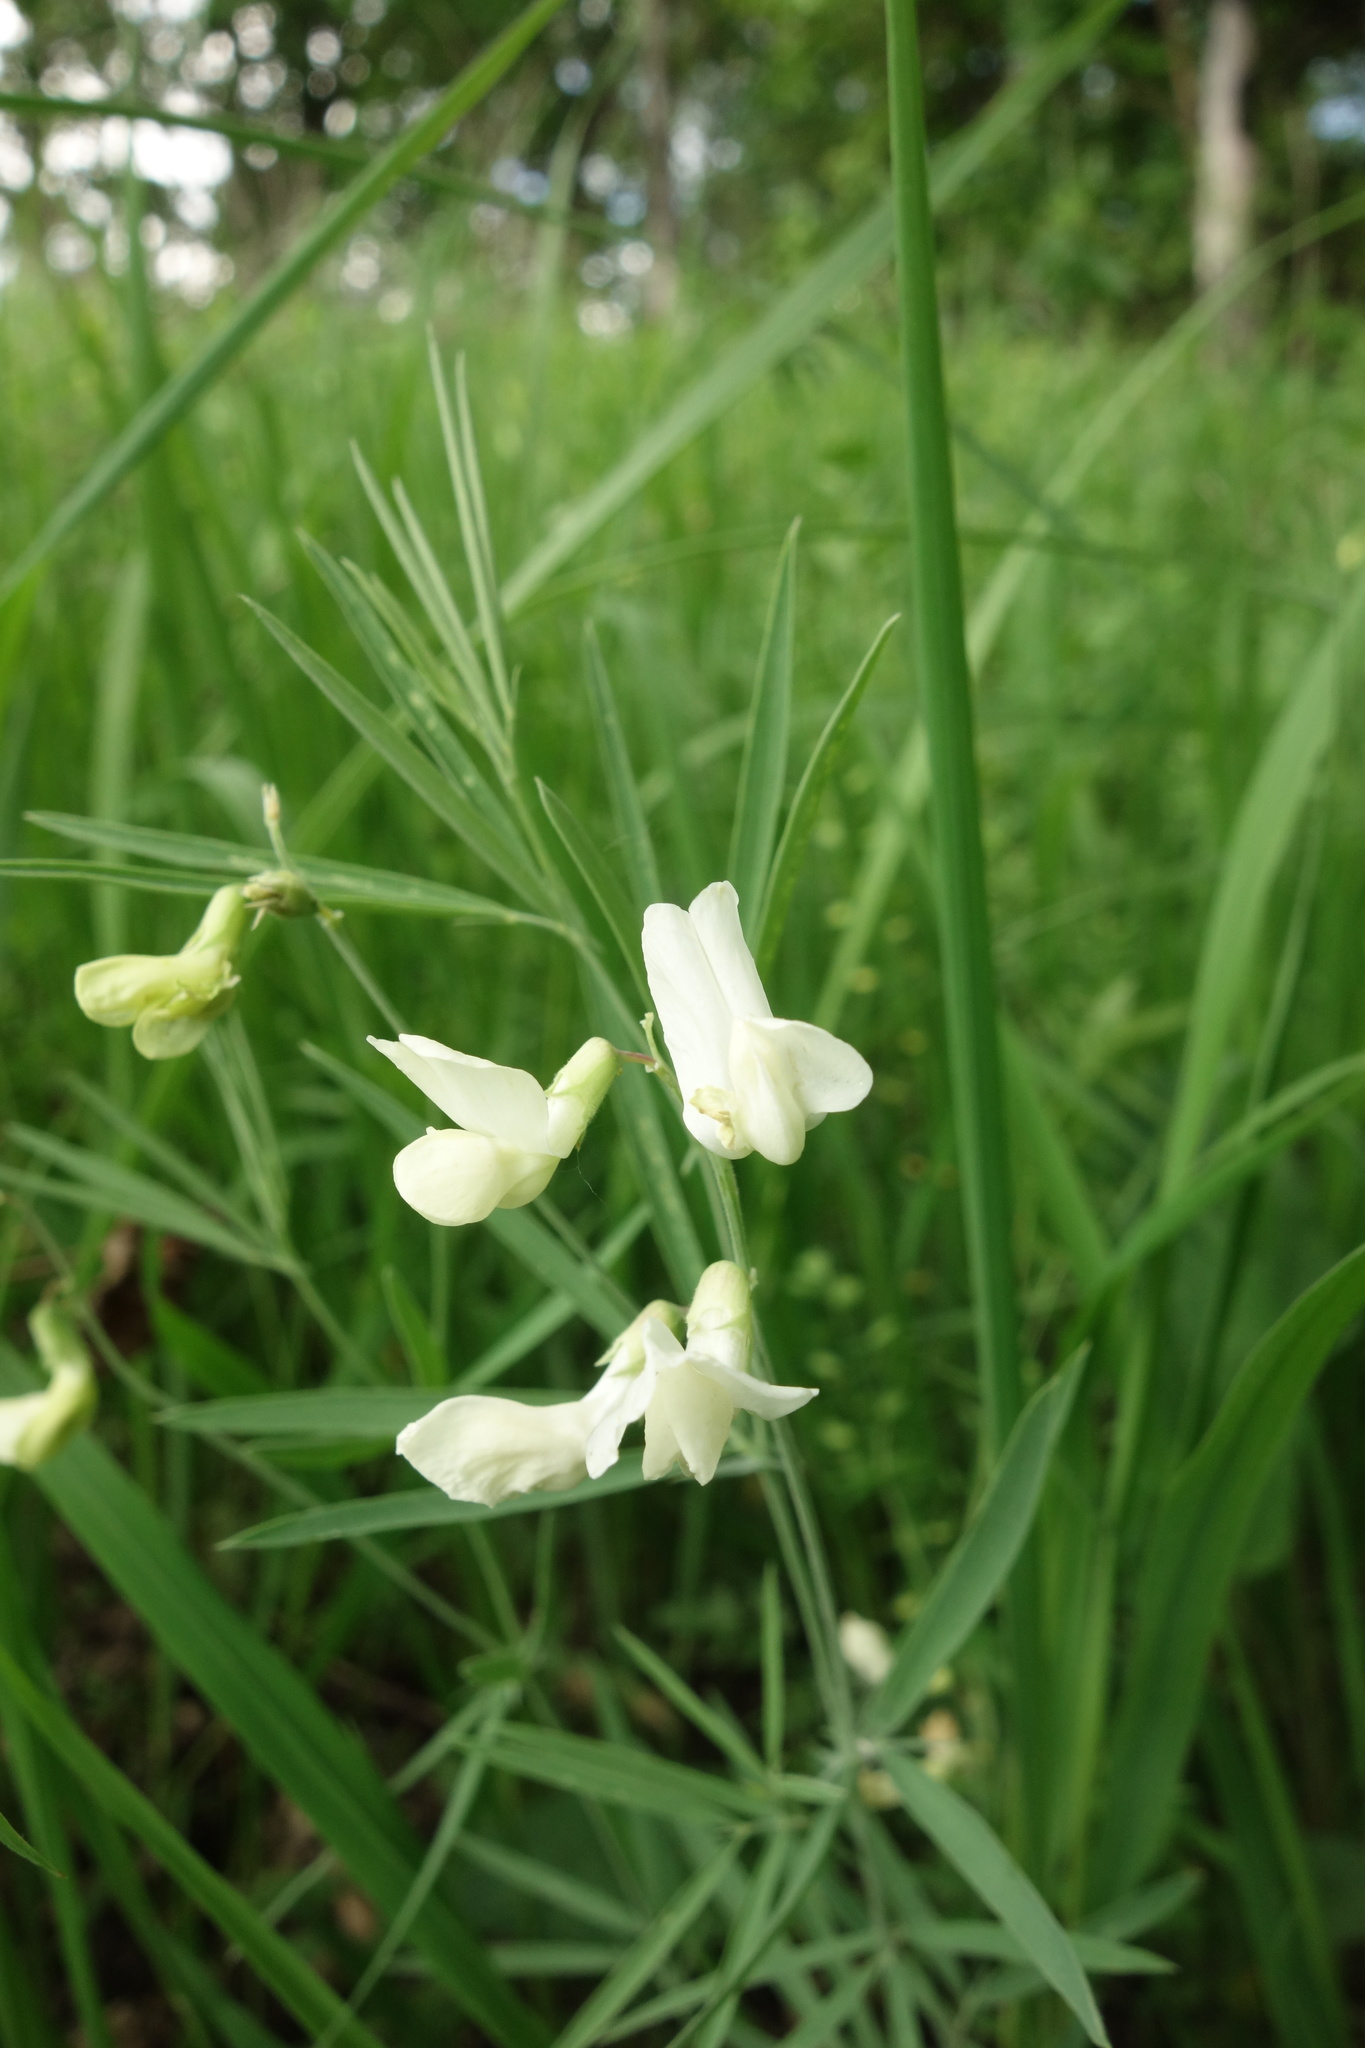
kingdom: Plantae
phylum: Tracheophyta
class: Magnoliopsida
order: Fabales
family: Fabaceae
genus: Lathyrus
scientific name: Lathyrus pallescens
